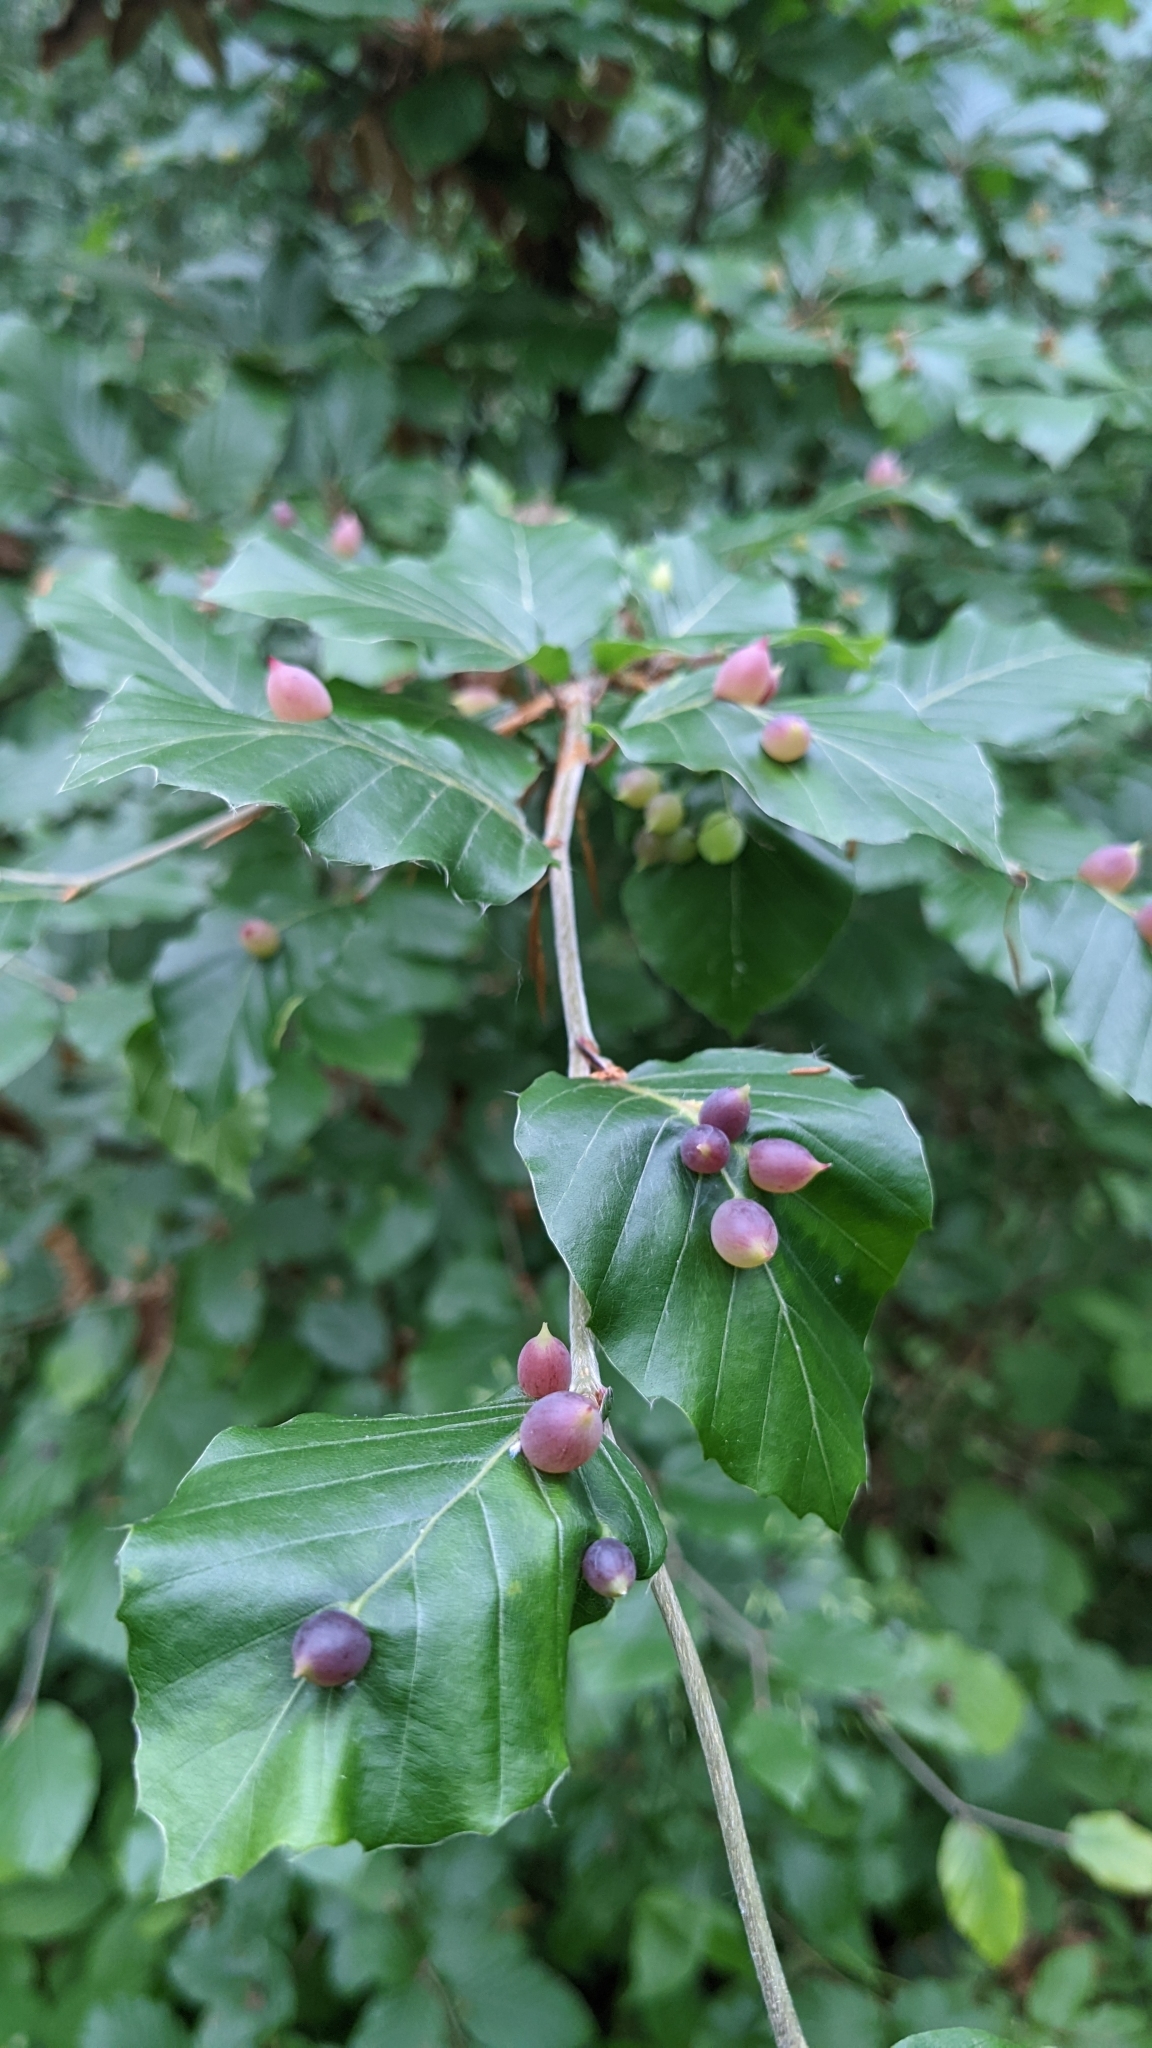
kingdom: Animalia
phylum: Arthropoda
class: Insecta
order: Diptera
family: Cecidomyiidae
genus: Mikiola
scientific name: Mikiola fagi
